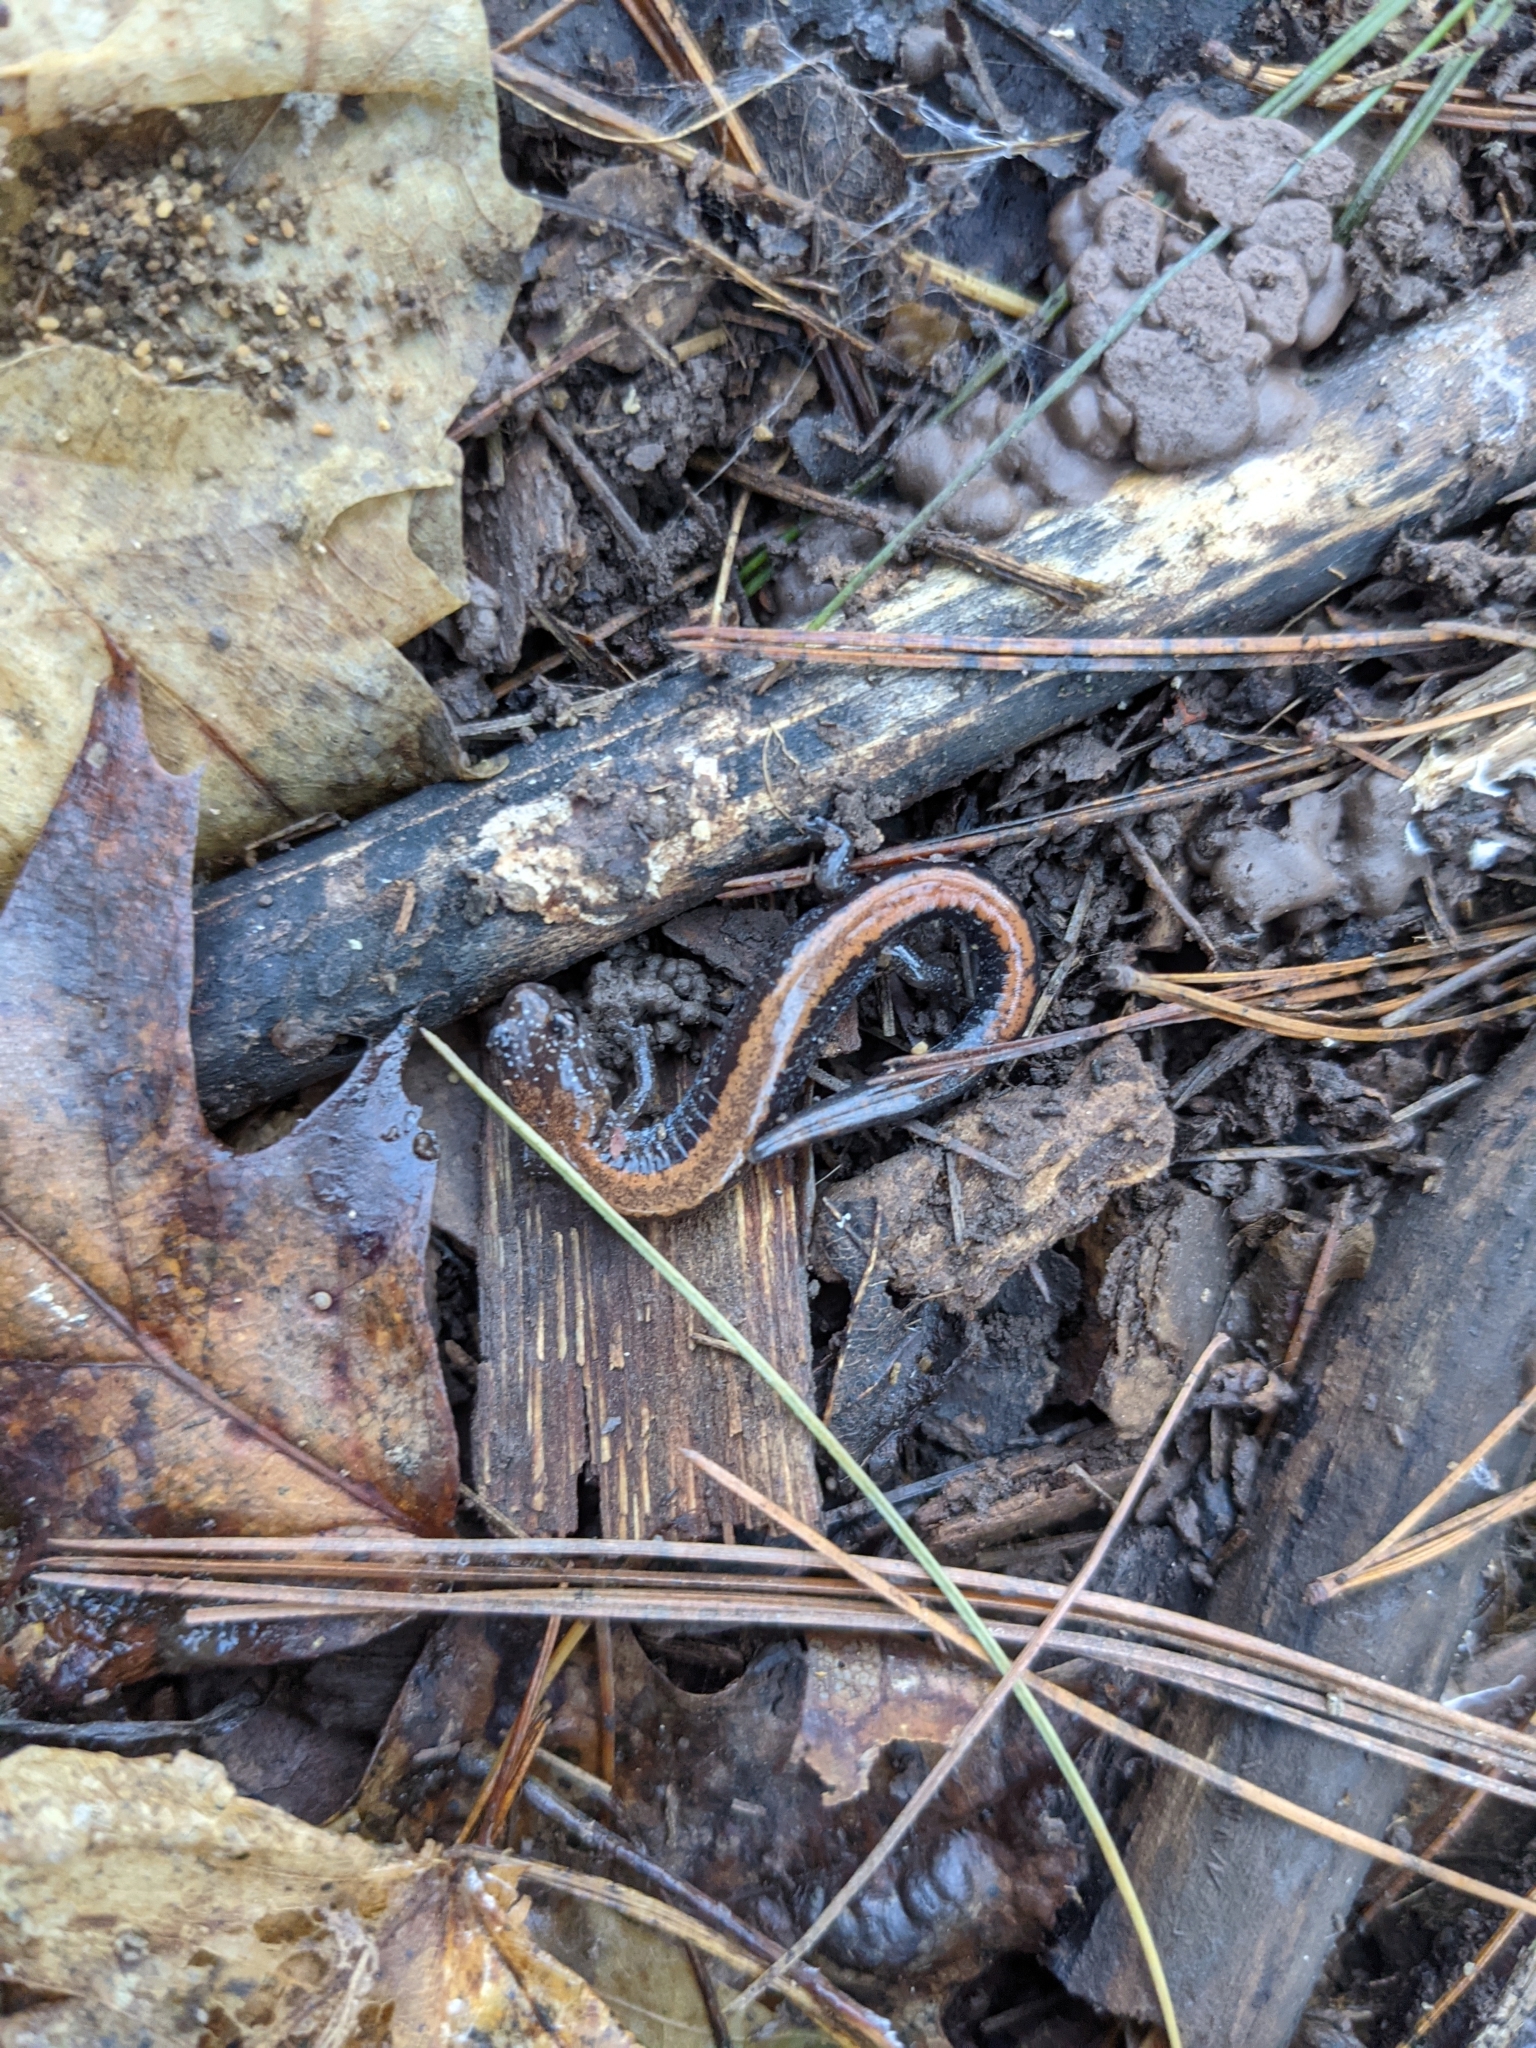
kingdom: Animalia
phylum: Chordata
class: Amphibia
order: Caudata
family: Plethodontidae
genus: Plethodon
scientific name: Plethodon cinereus
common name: Redback salamander
